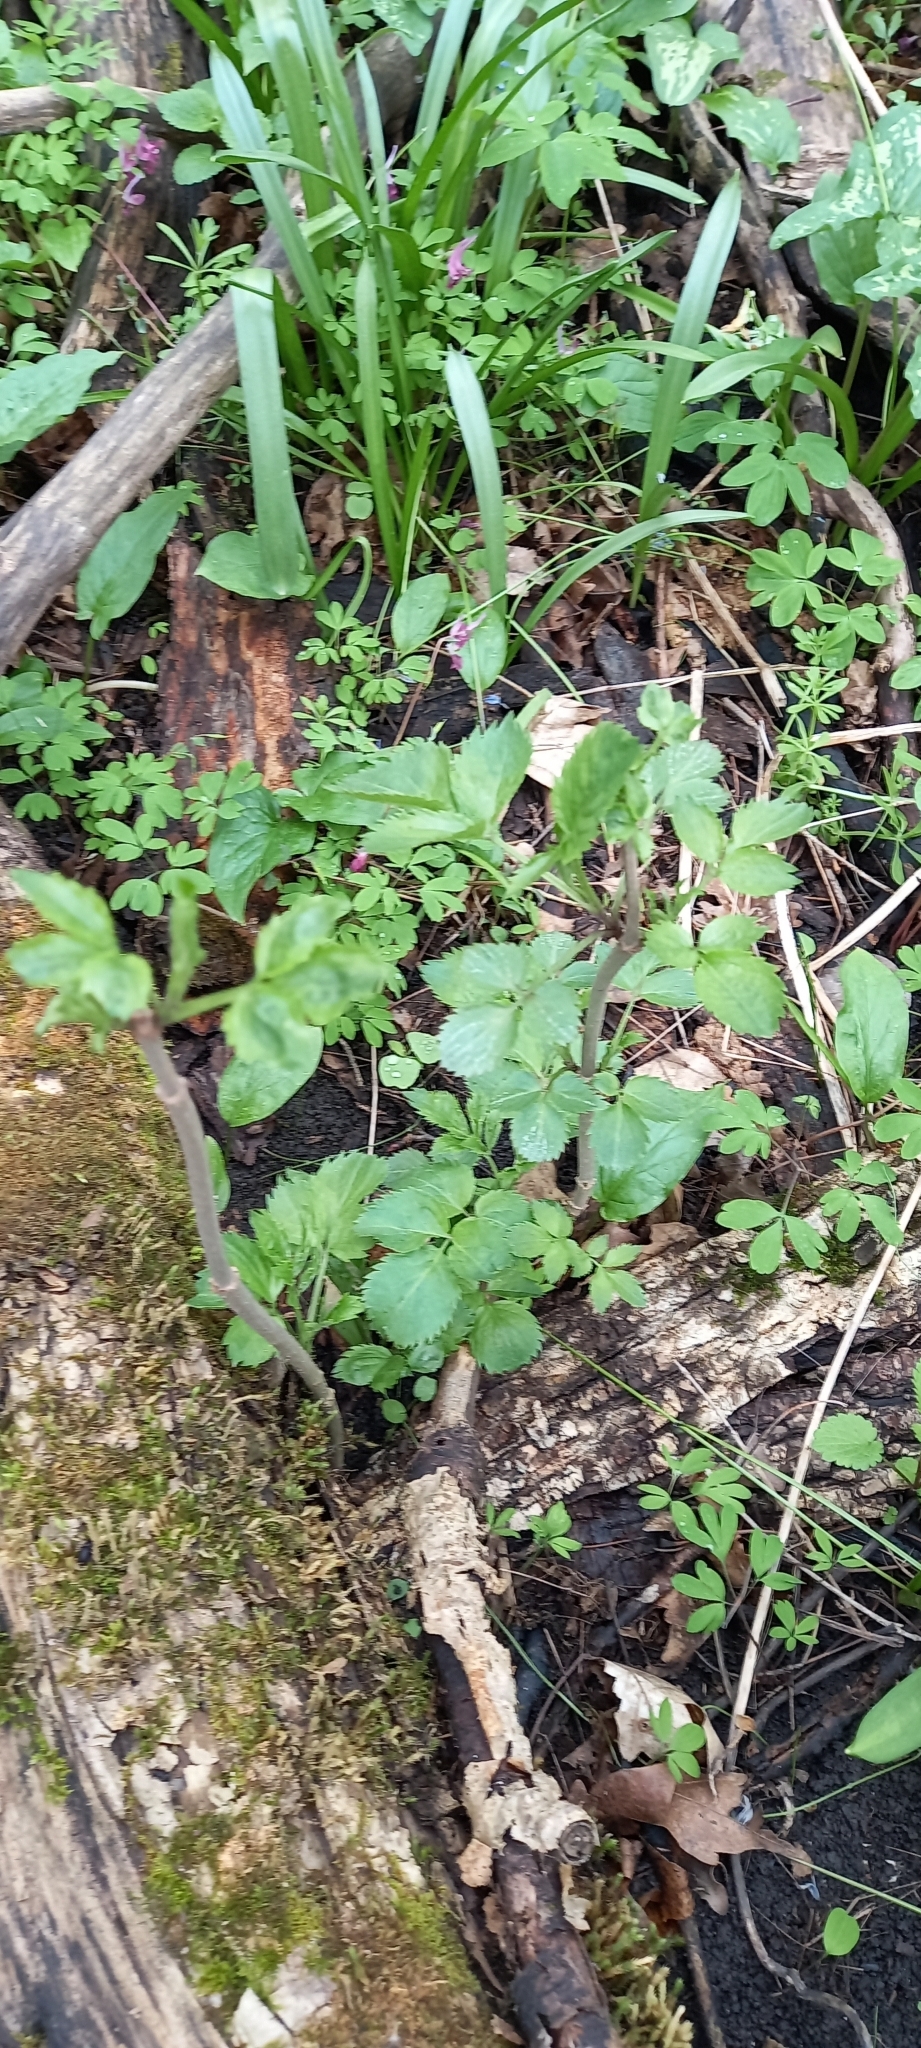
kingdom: Plantae
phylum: Tracheophyta
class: Magnoliopsida
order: Dipsacales
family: Viburnaceae
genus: Sambucus
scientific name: Sambucus nigra
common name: Elder
